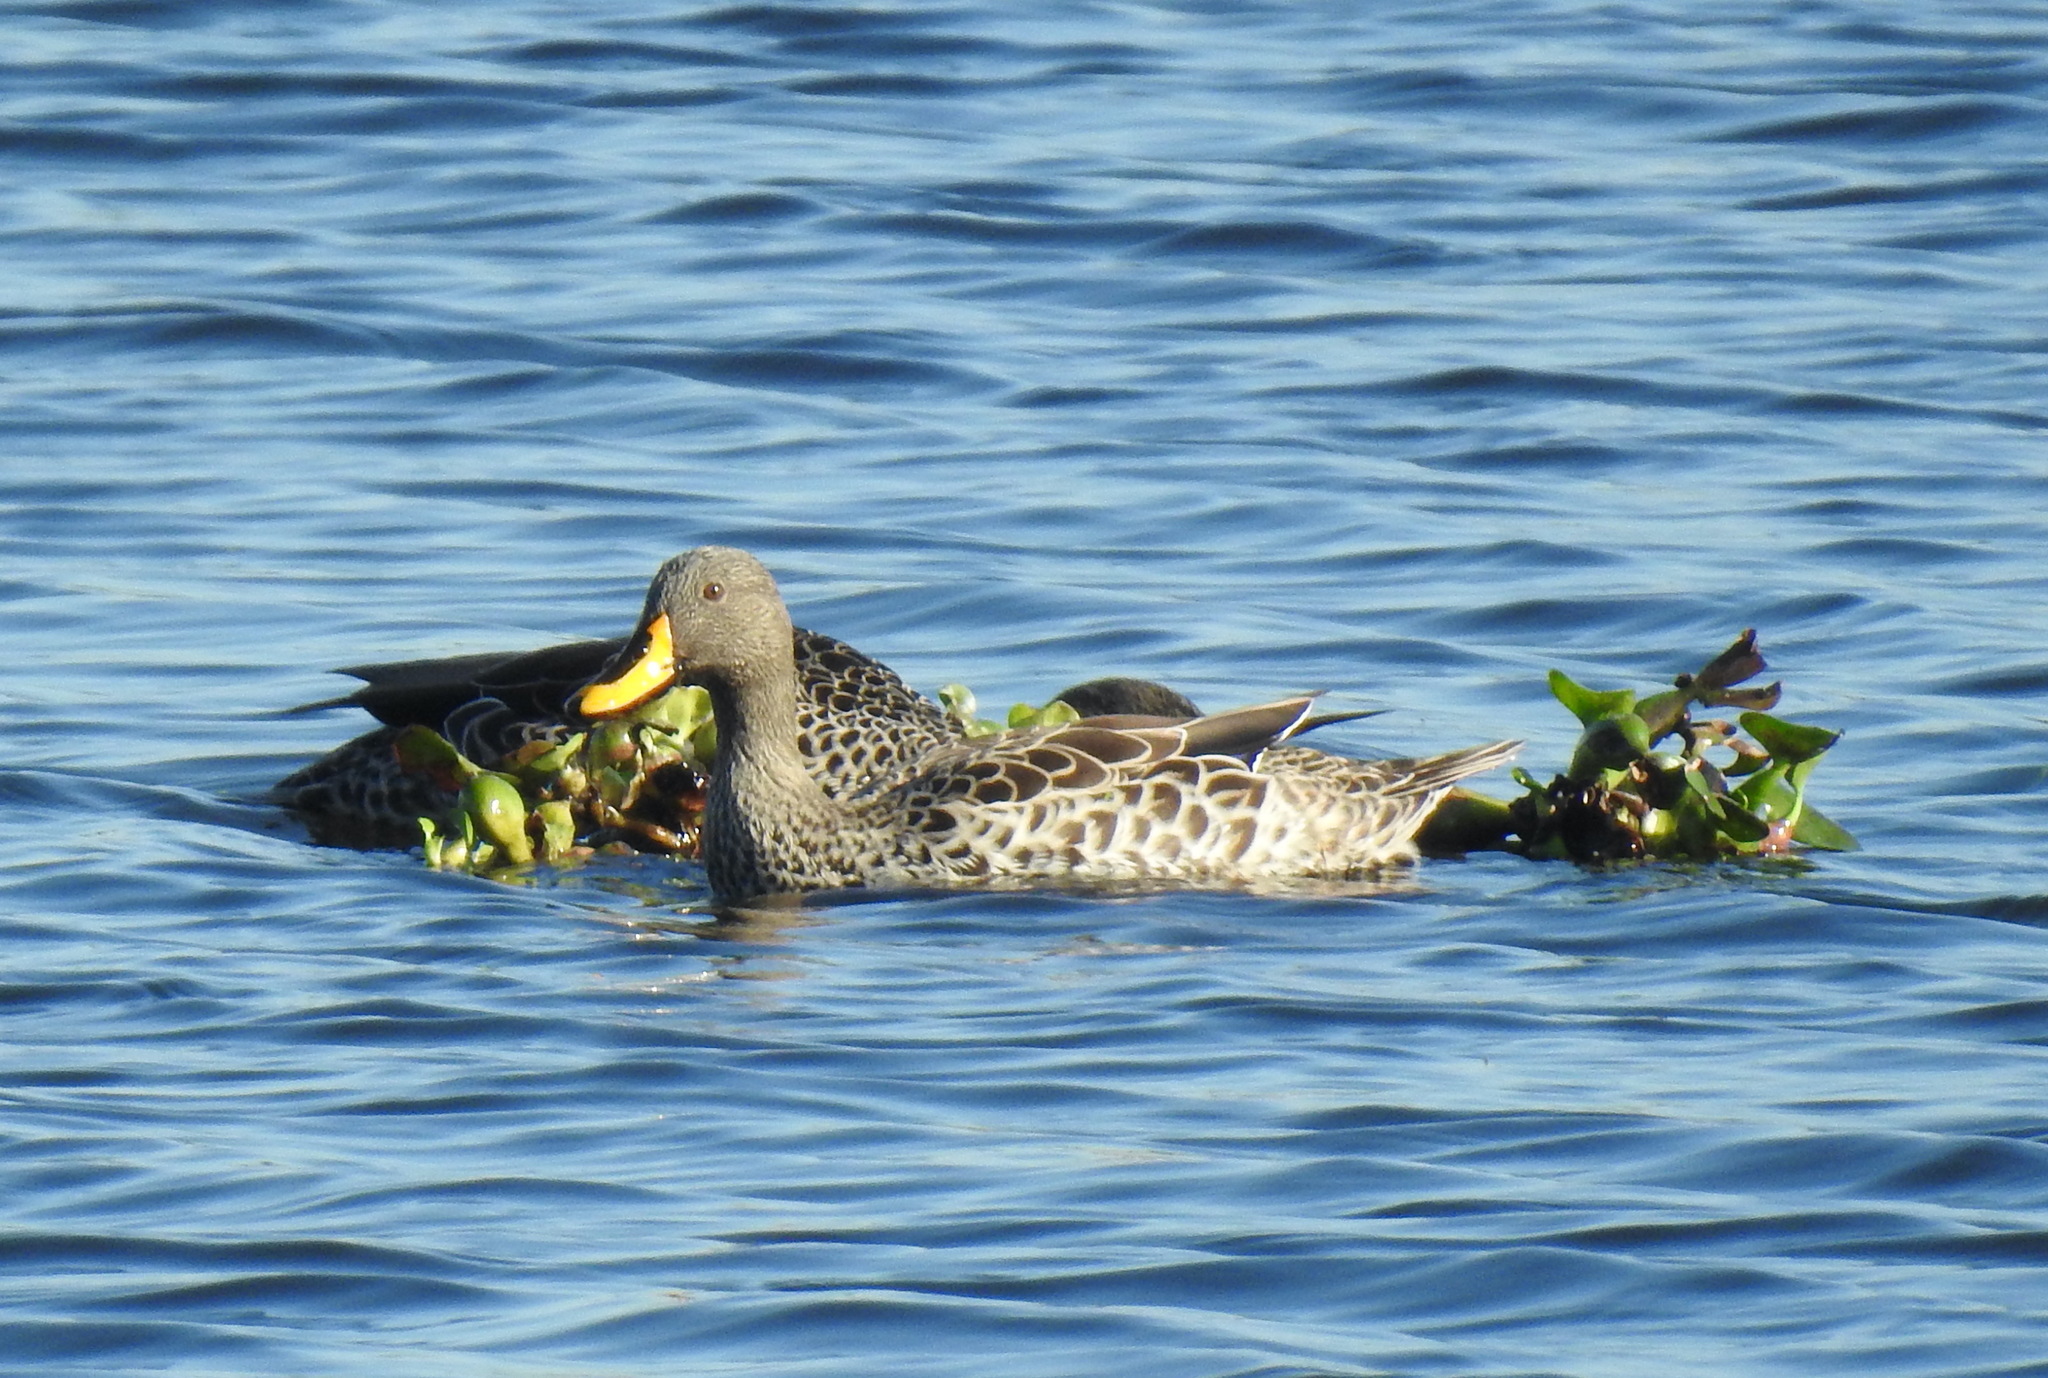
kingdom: Animalia
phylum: Chordata
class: Aves
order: Anseriformes
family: Anatidae
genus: Anas
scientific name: Anas undulata
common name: Yellow-billed duck
